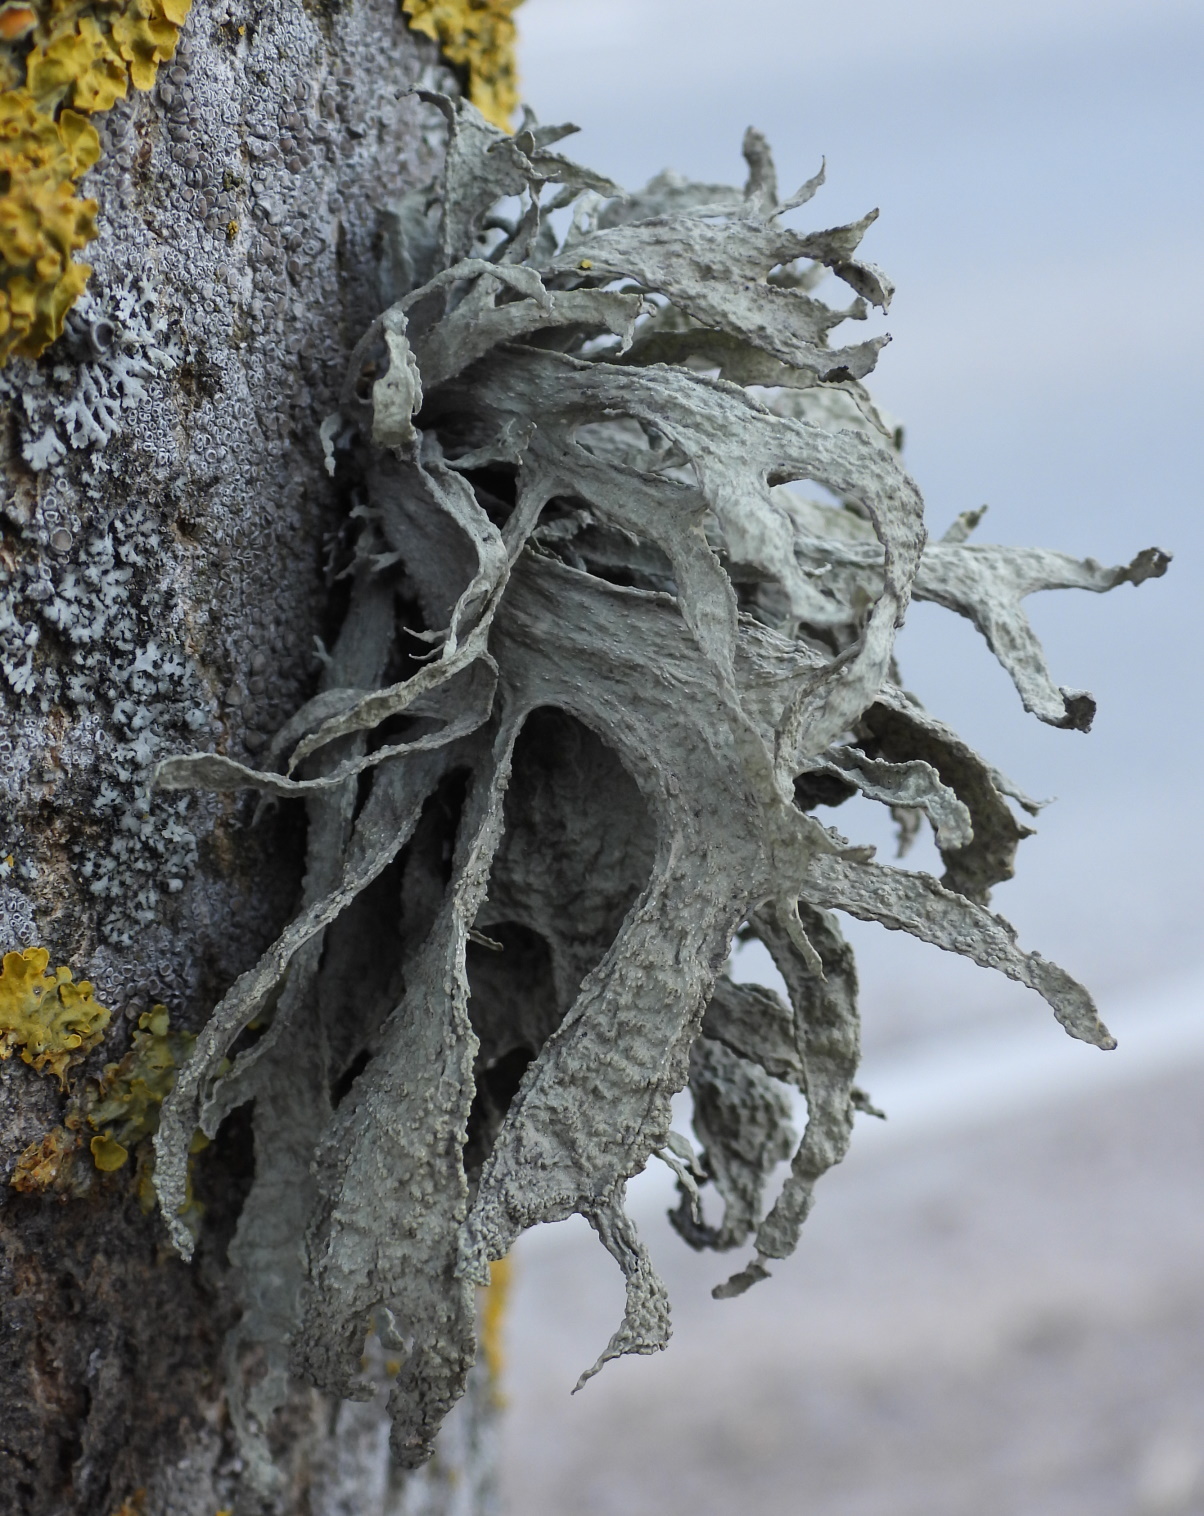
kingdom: Fungi
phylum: Ascomycota
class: Lecanoromycetes
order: Lecanorales
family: Ramalinaceae
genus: Ramalina
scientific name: Ramalina fraxinea
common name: Cartilage lichen
